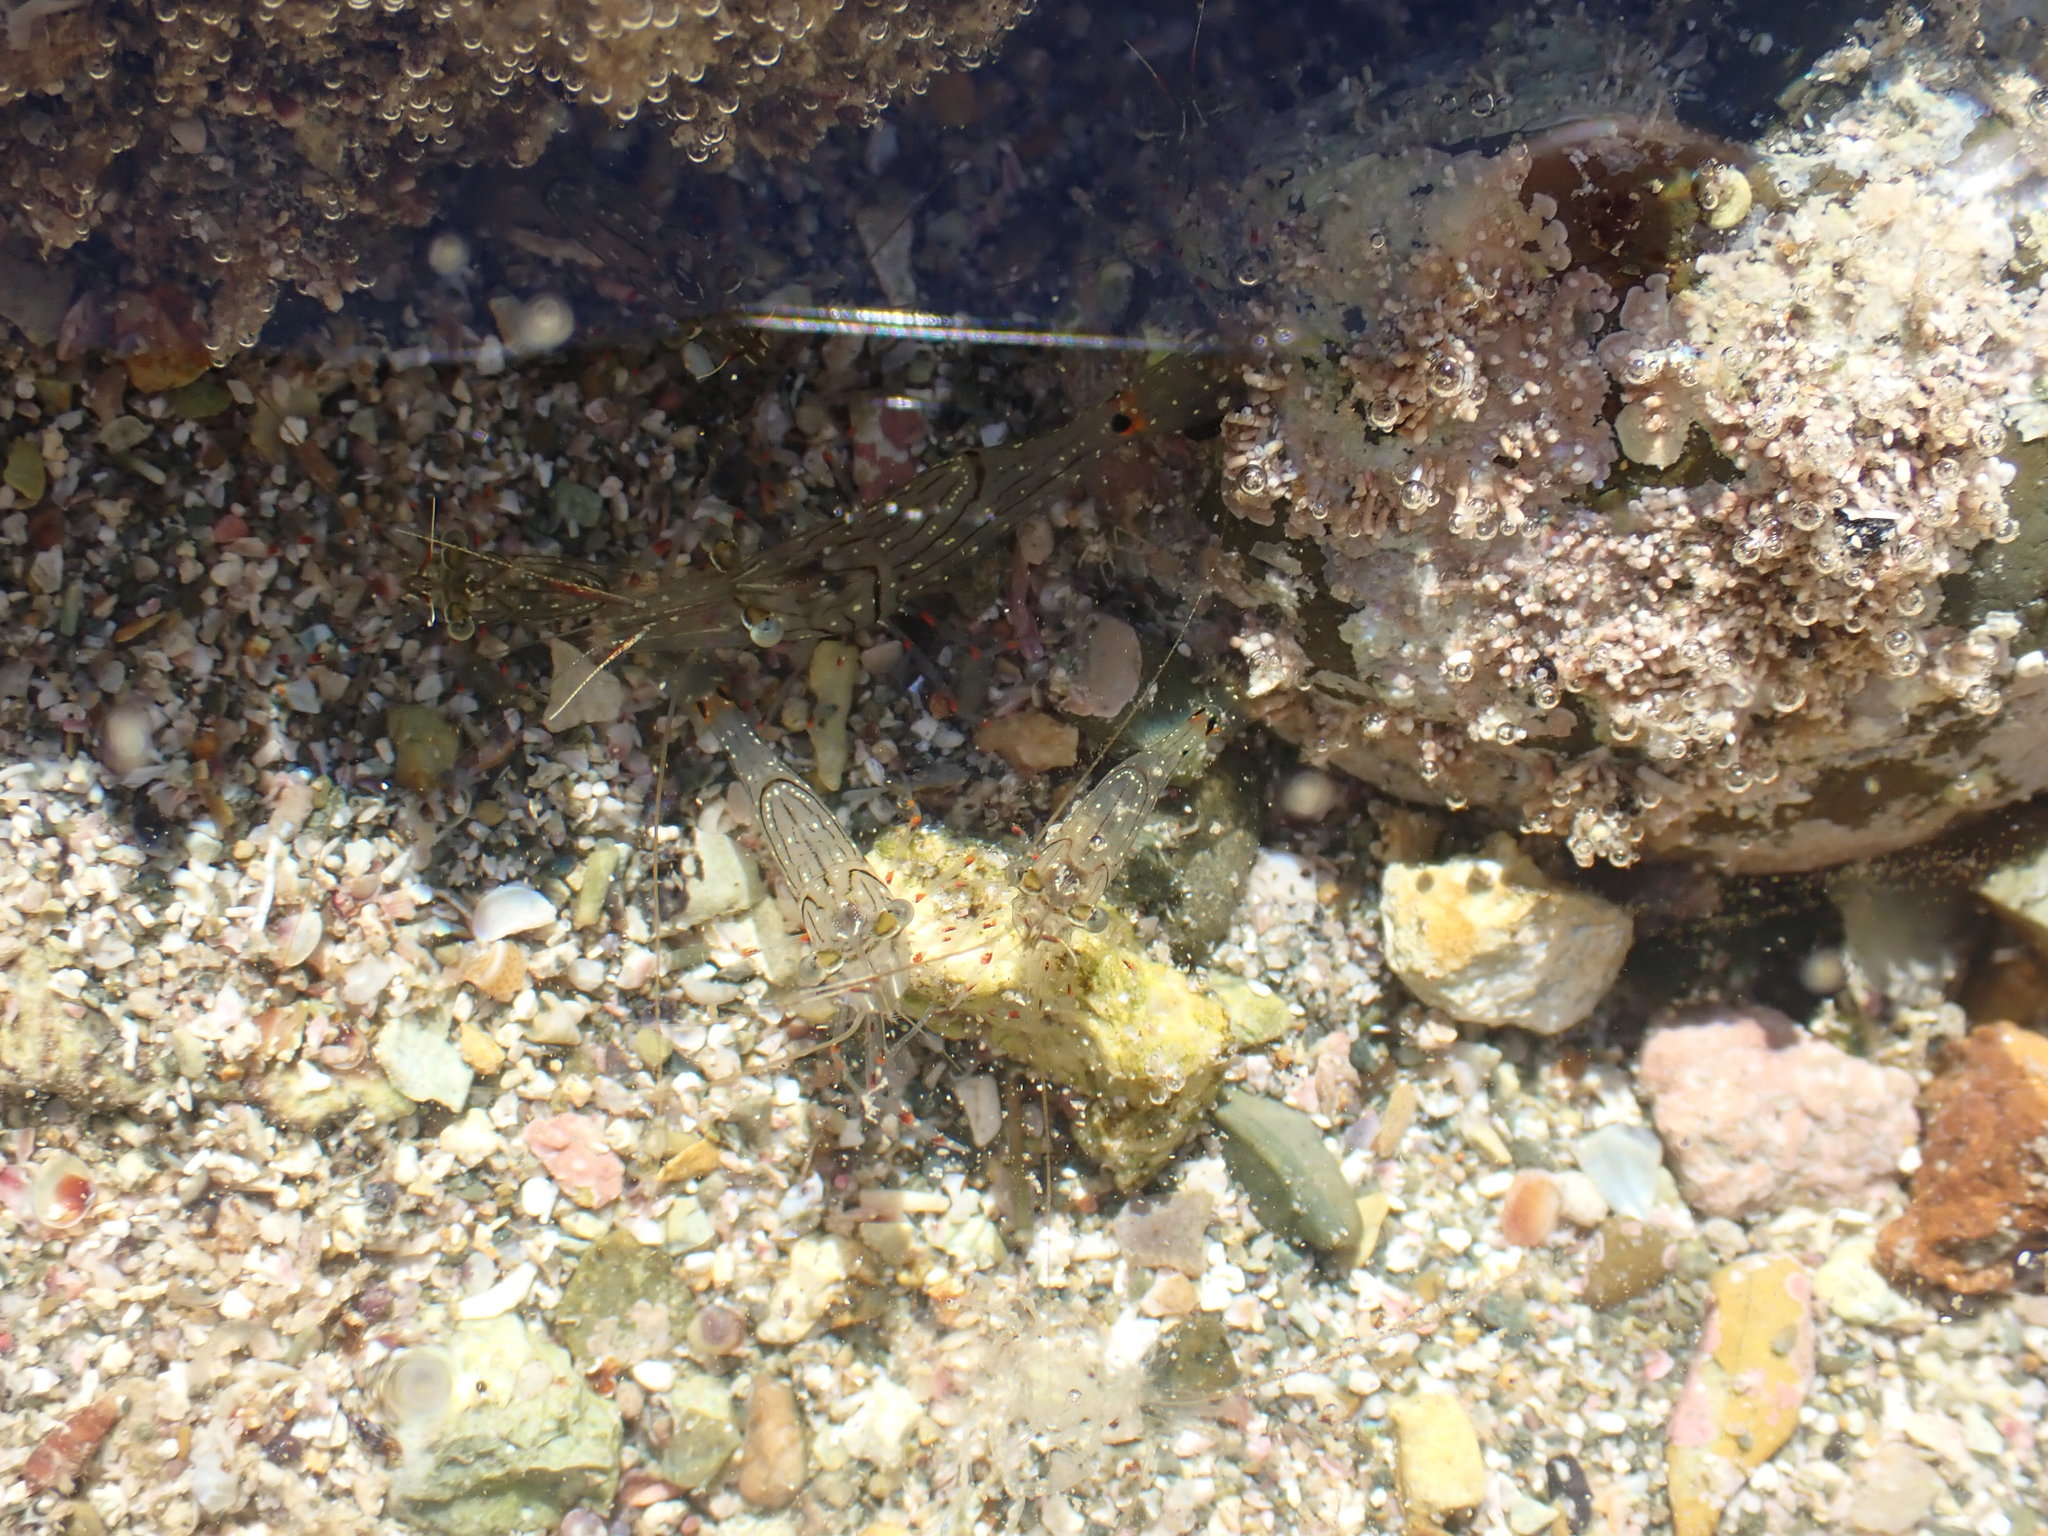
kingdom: Animalia
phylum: Arthropoda
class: Malacostraca
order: Decapoda
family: Palaemonidae
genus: Palaemon
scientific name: Palaemon affinis
